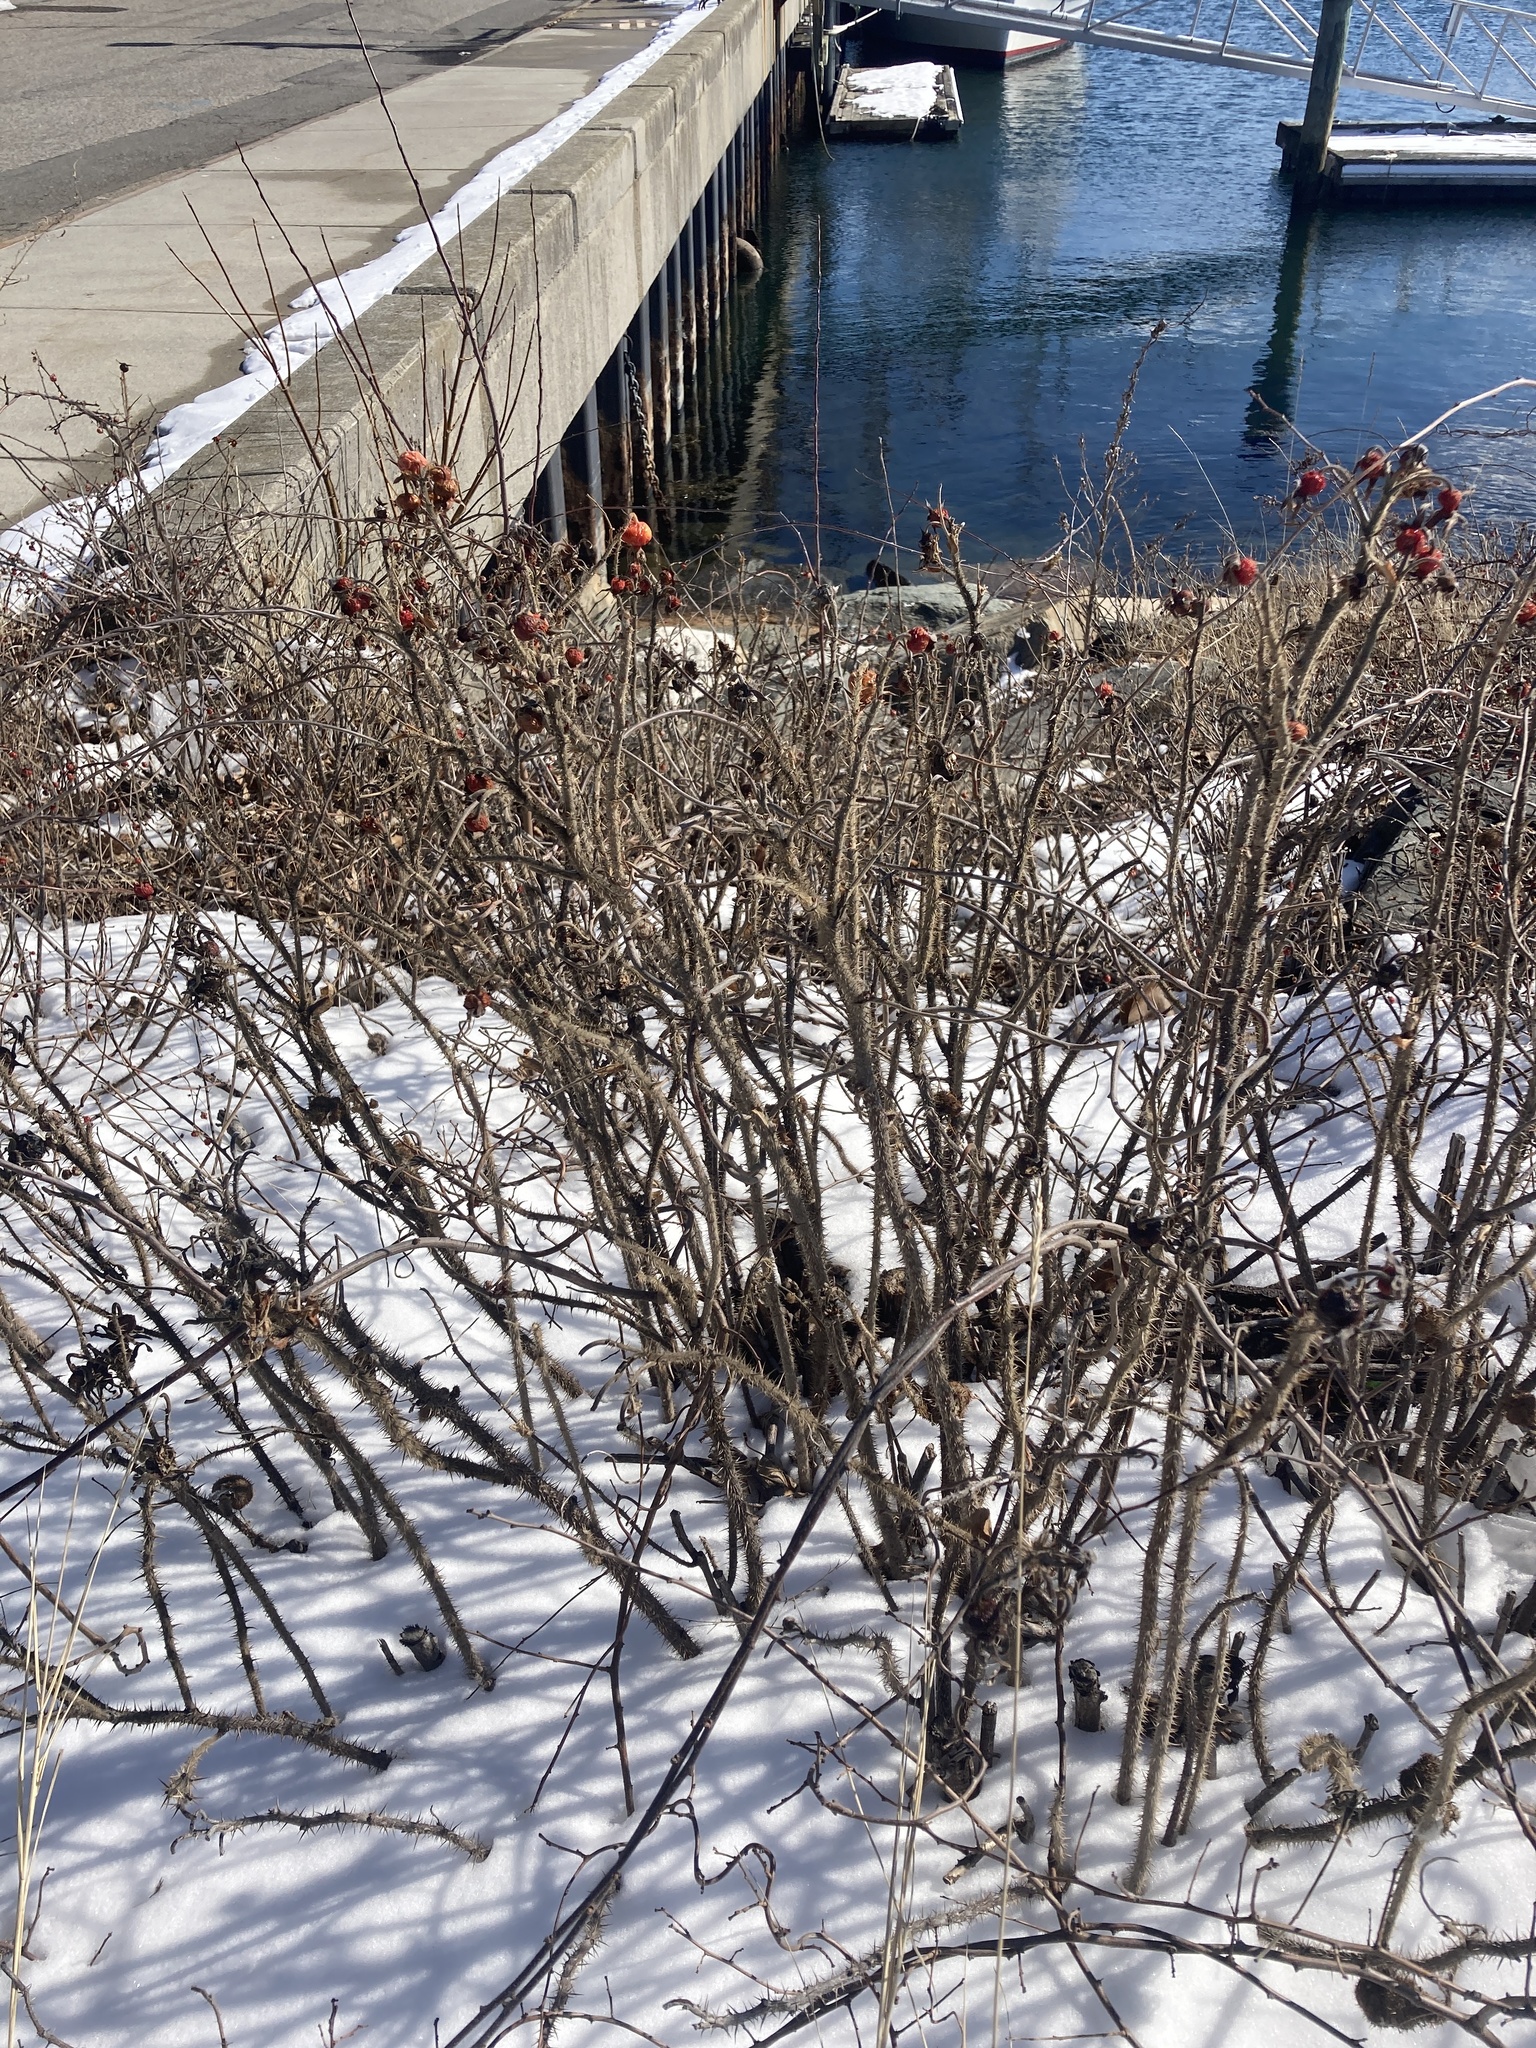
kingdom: Plantae
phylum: Tracheophyta
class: Magnoliopsida
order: Rosales
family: Rosaceae
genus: Rosa
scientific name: Rosa rugosa
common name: Japanese rose
